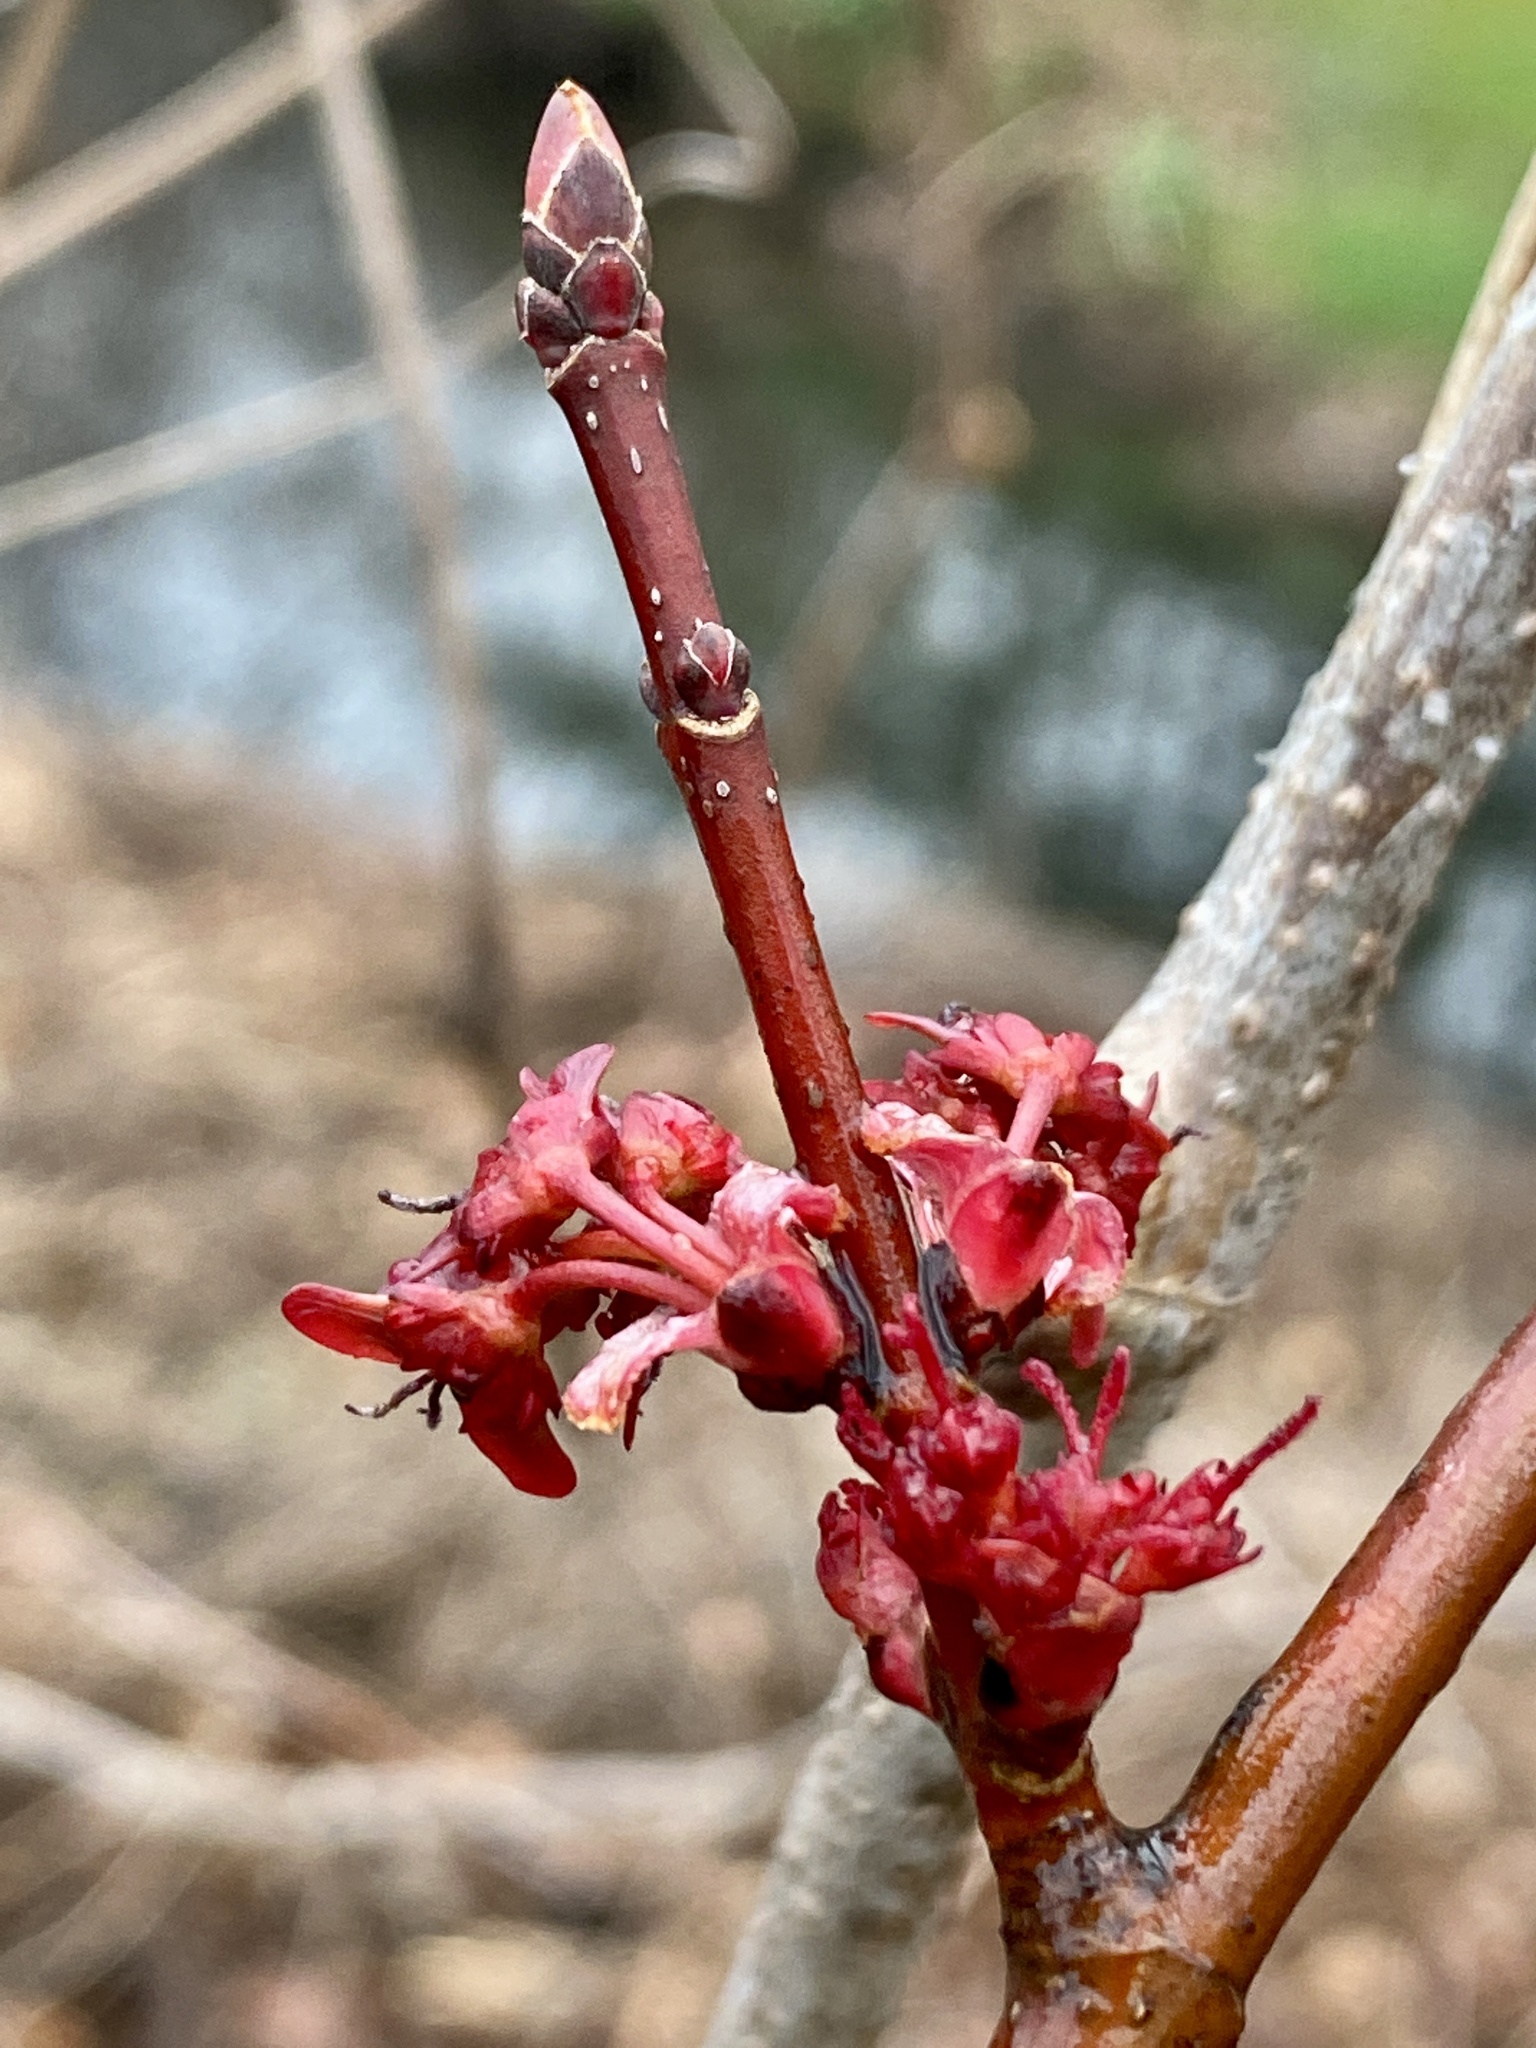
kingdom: Plantae
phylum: Tracheophyta
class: Magnoliopsida
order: Sapindales
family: Sapindaceae
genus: Acer
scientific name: Acer rubrum
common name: Red maple
